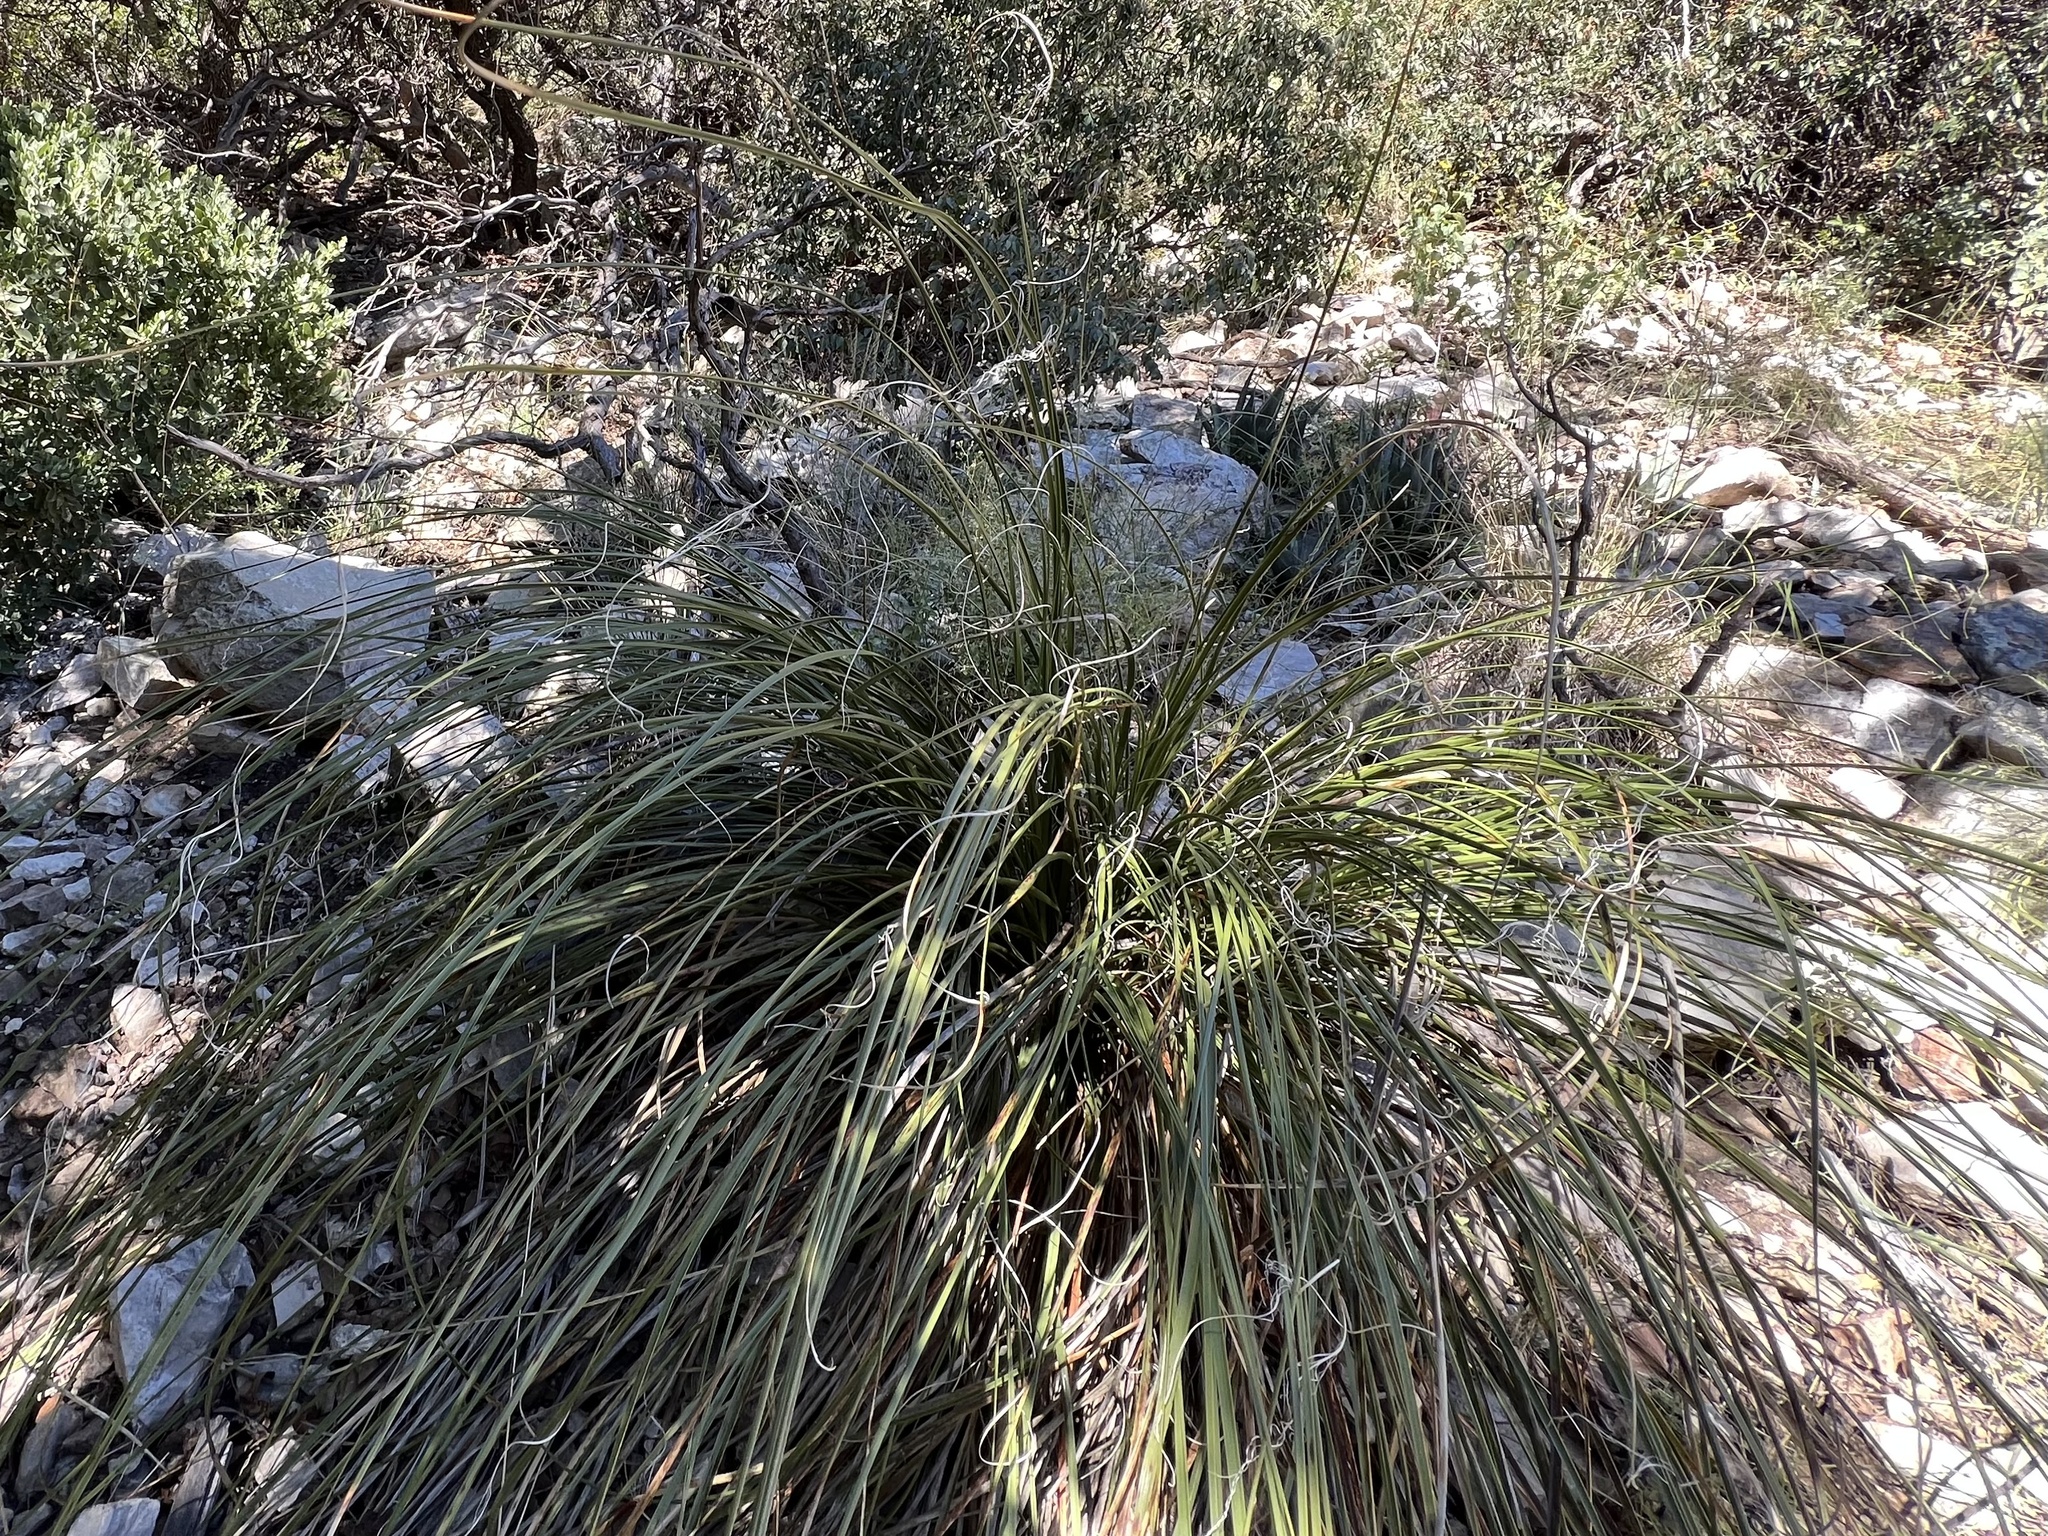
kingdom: Plantae
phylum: Tracheophyta
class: Liliopsida
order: Asparagales
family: Asparagaceae
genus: Nolina
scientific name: Nolina microcarpa
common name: Bear-grass
